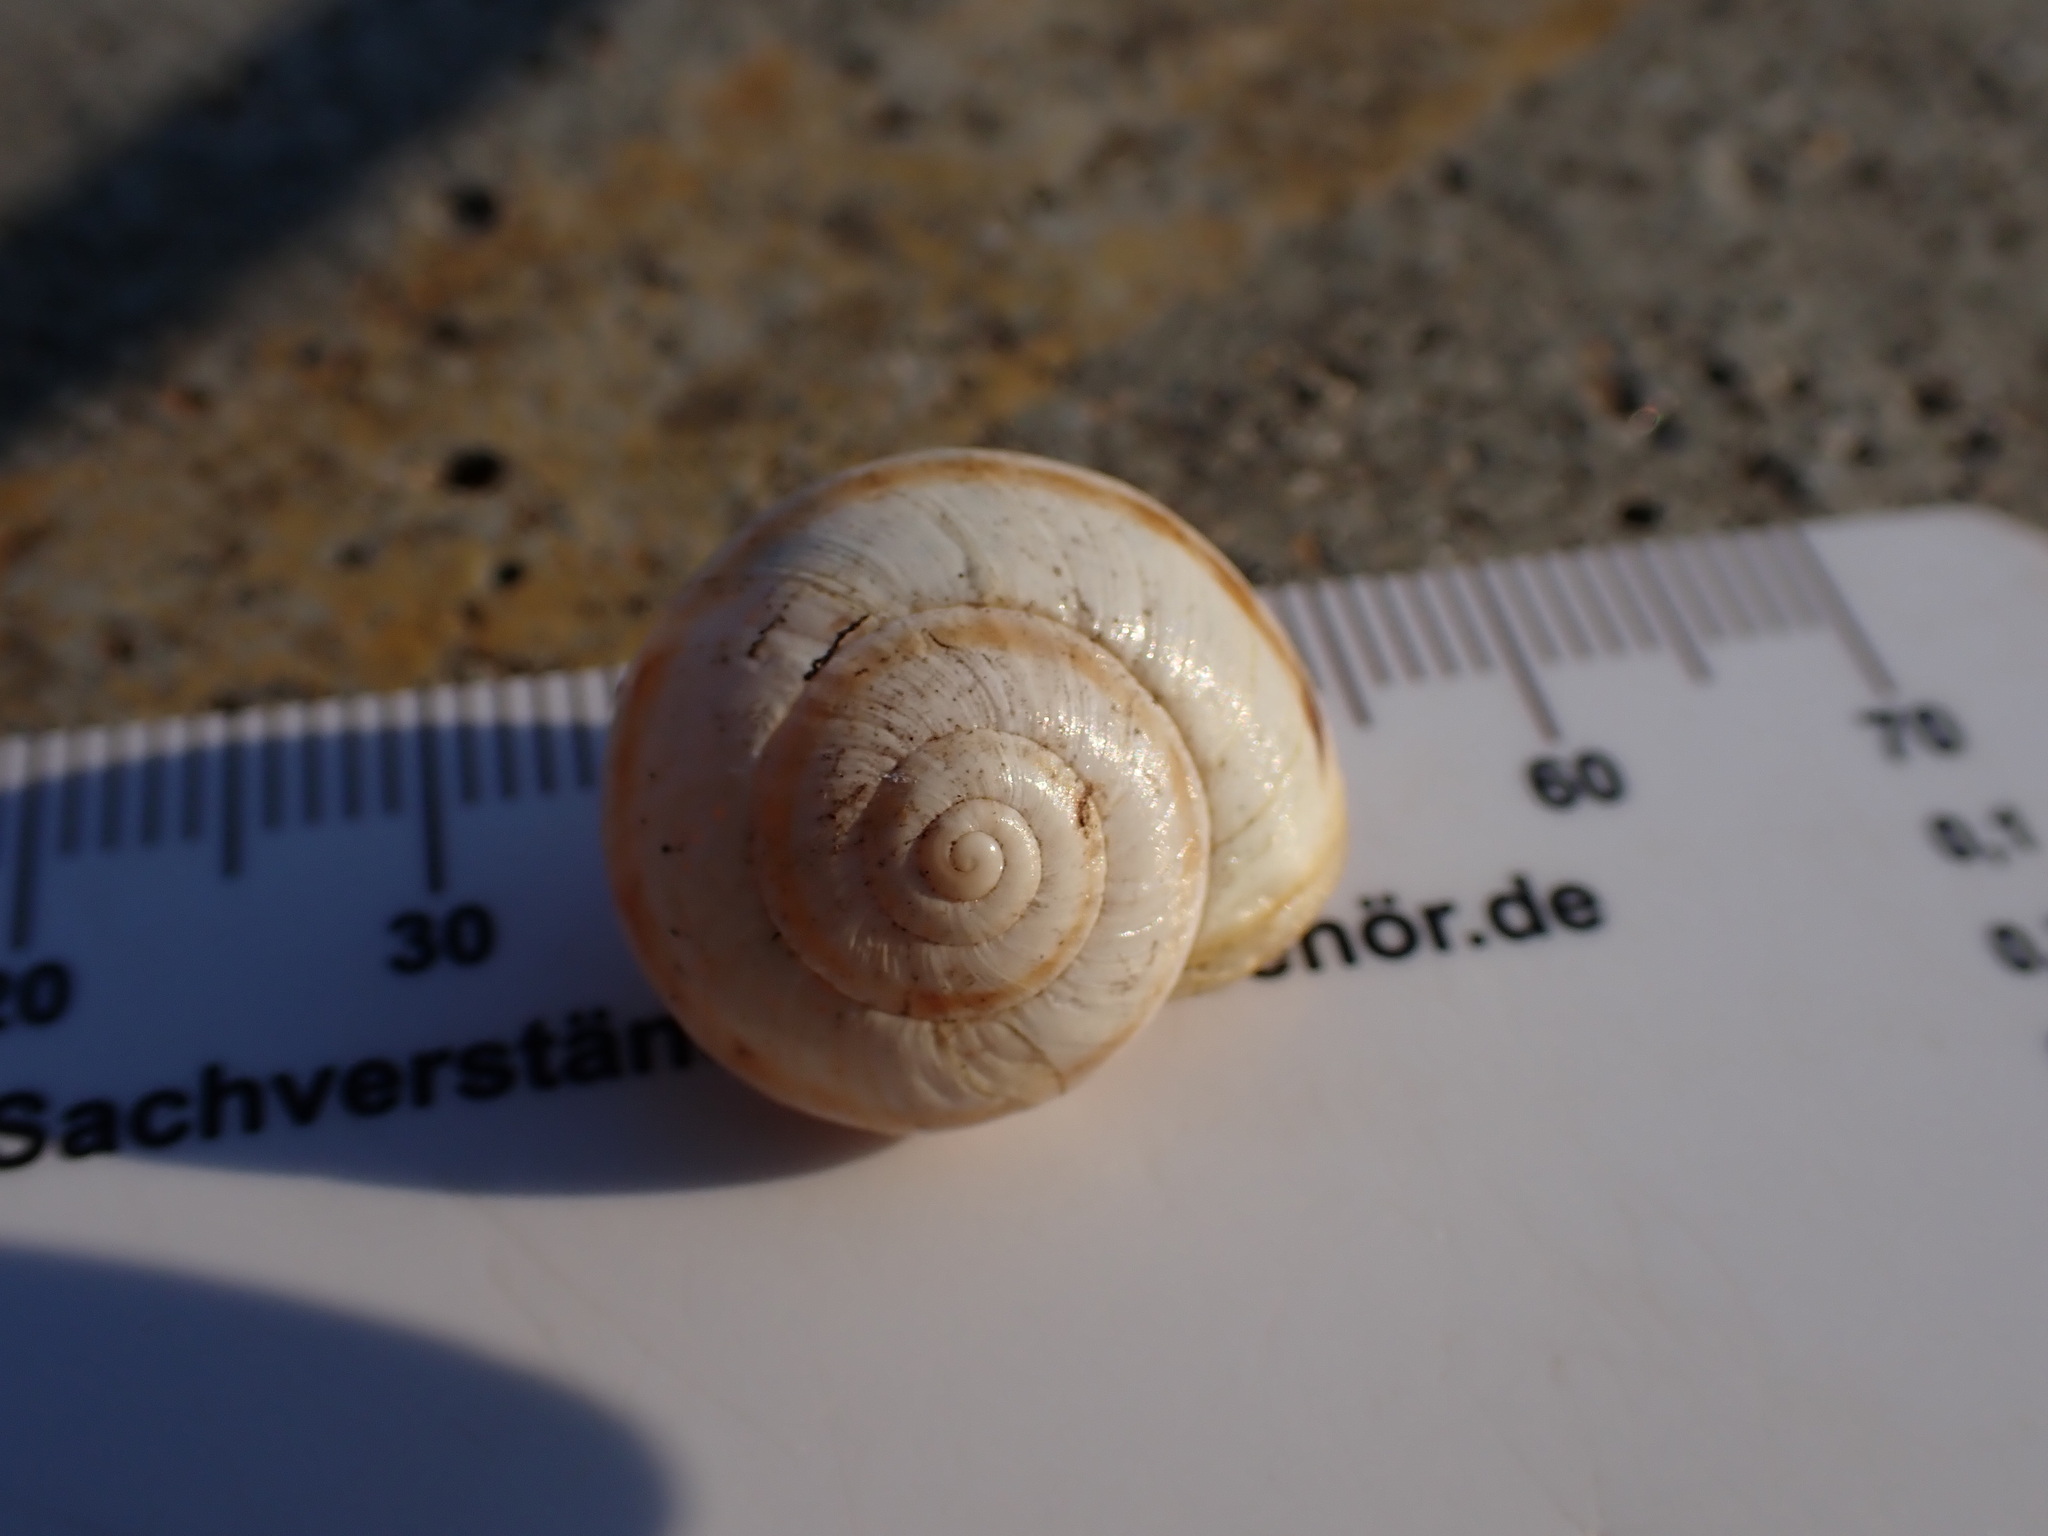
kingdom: Animalia
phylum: Mollusca
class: Gastropoda
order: Stylommatophora
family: Helicidae
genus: Theba
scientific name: Theba pisana
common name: White snail
